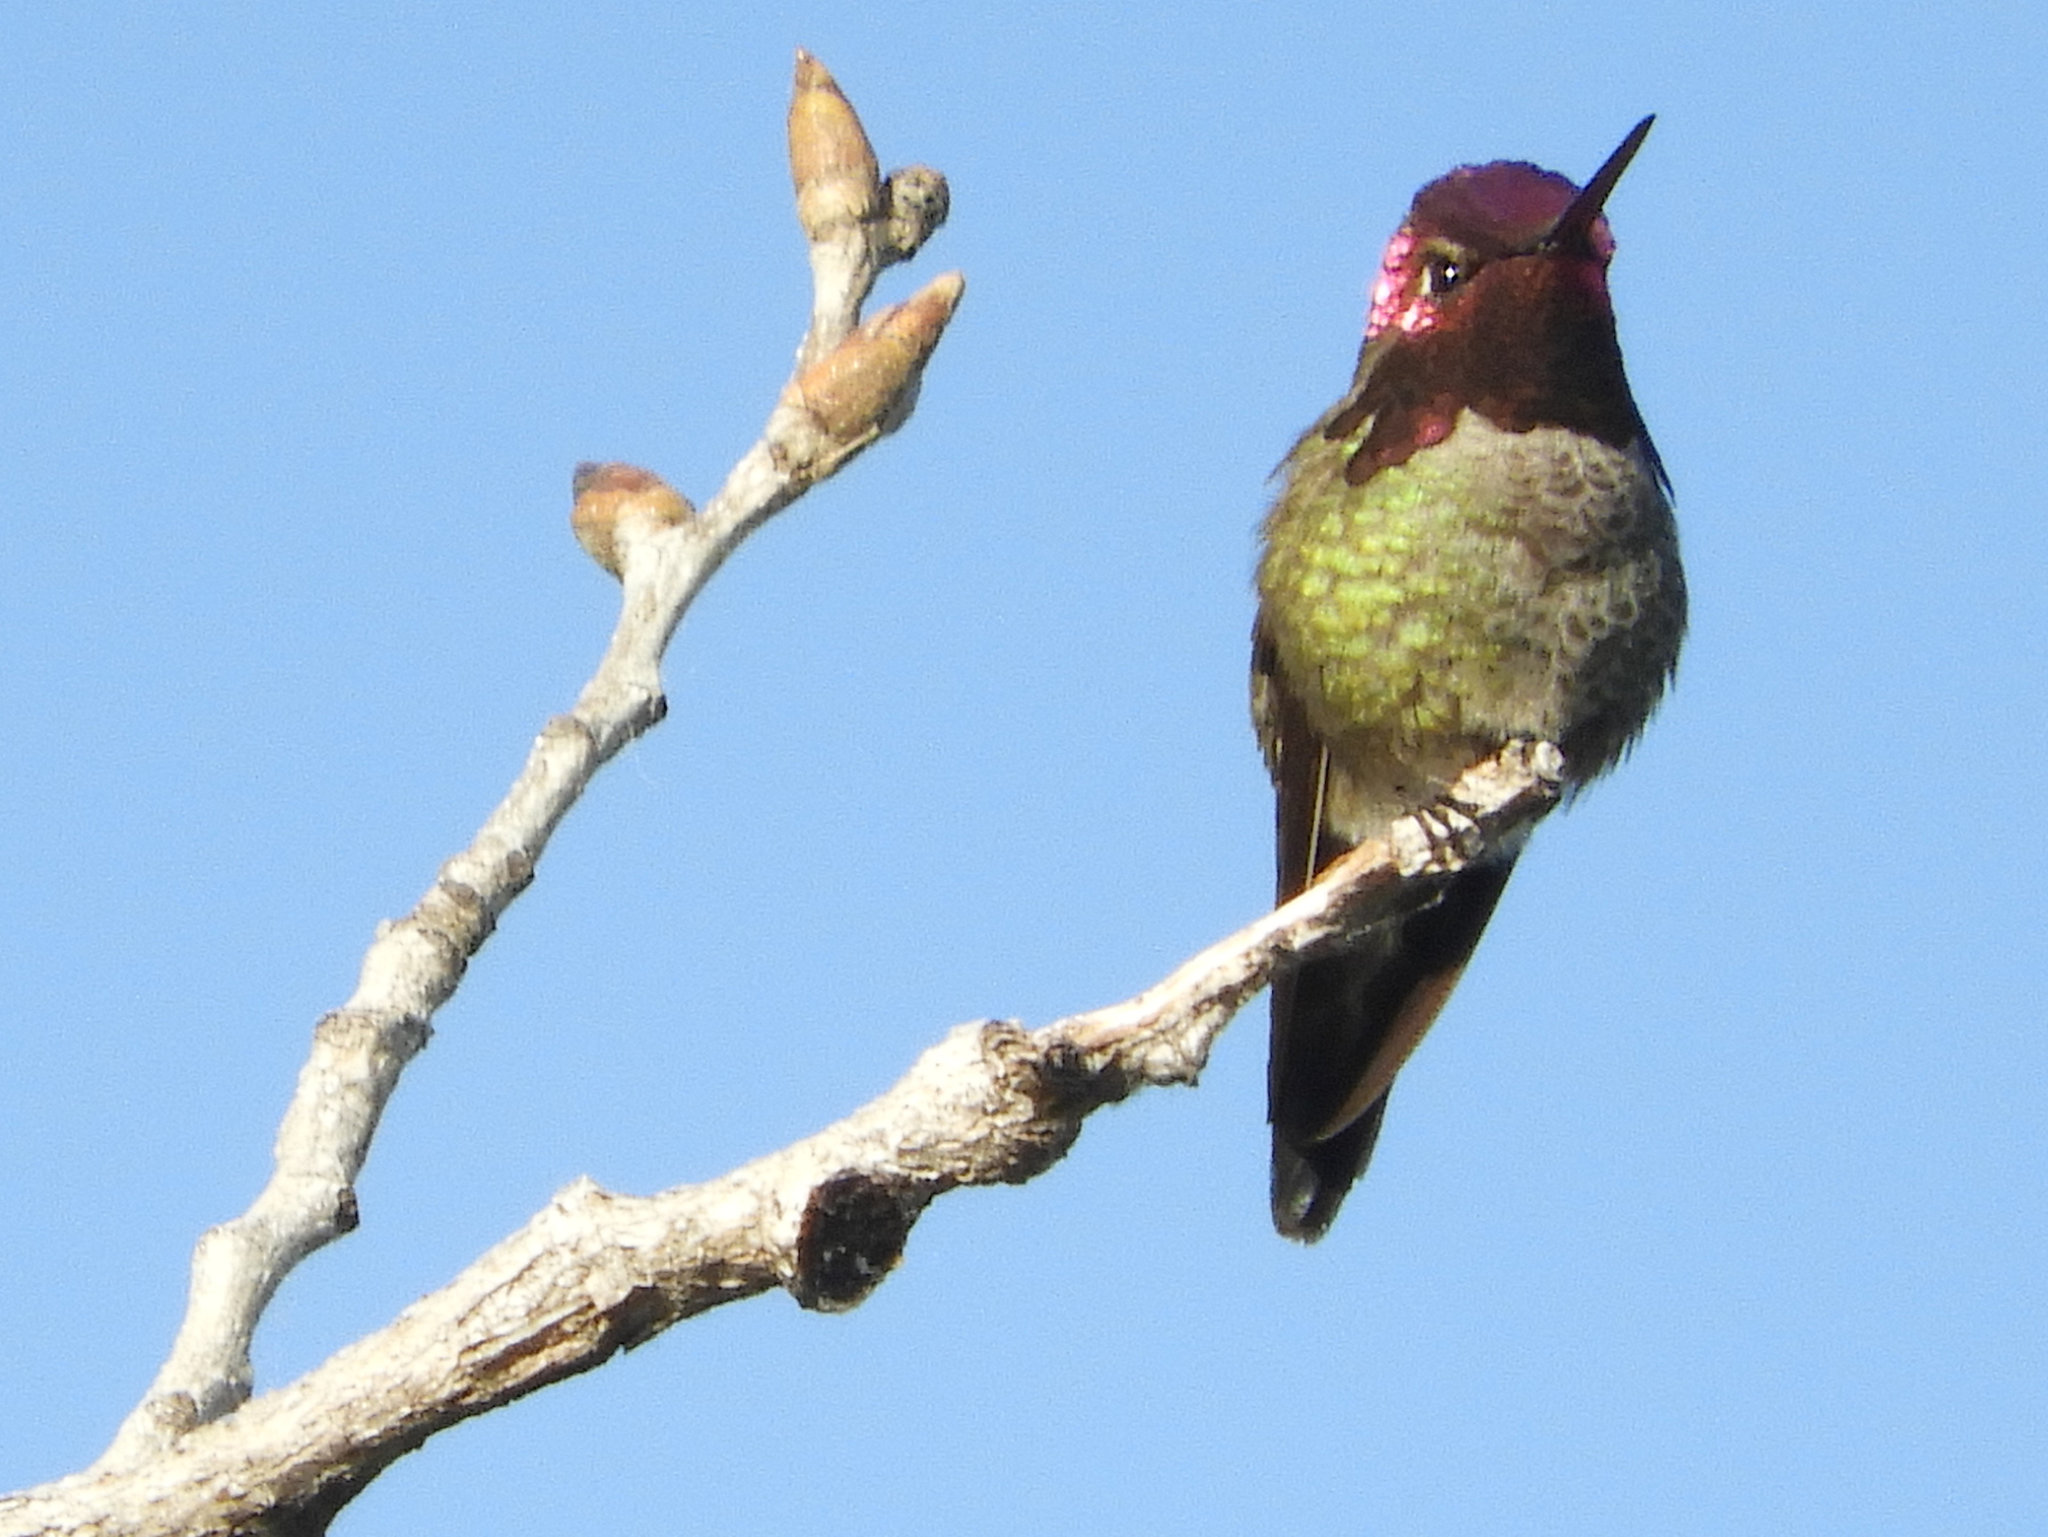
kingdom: Animalia
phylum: Chordata
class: Aves
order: Apodiformes
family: Trochilidae
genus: Calypte
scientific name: Calypte anna
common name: Anna's hummingbird
